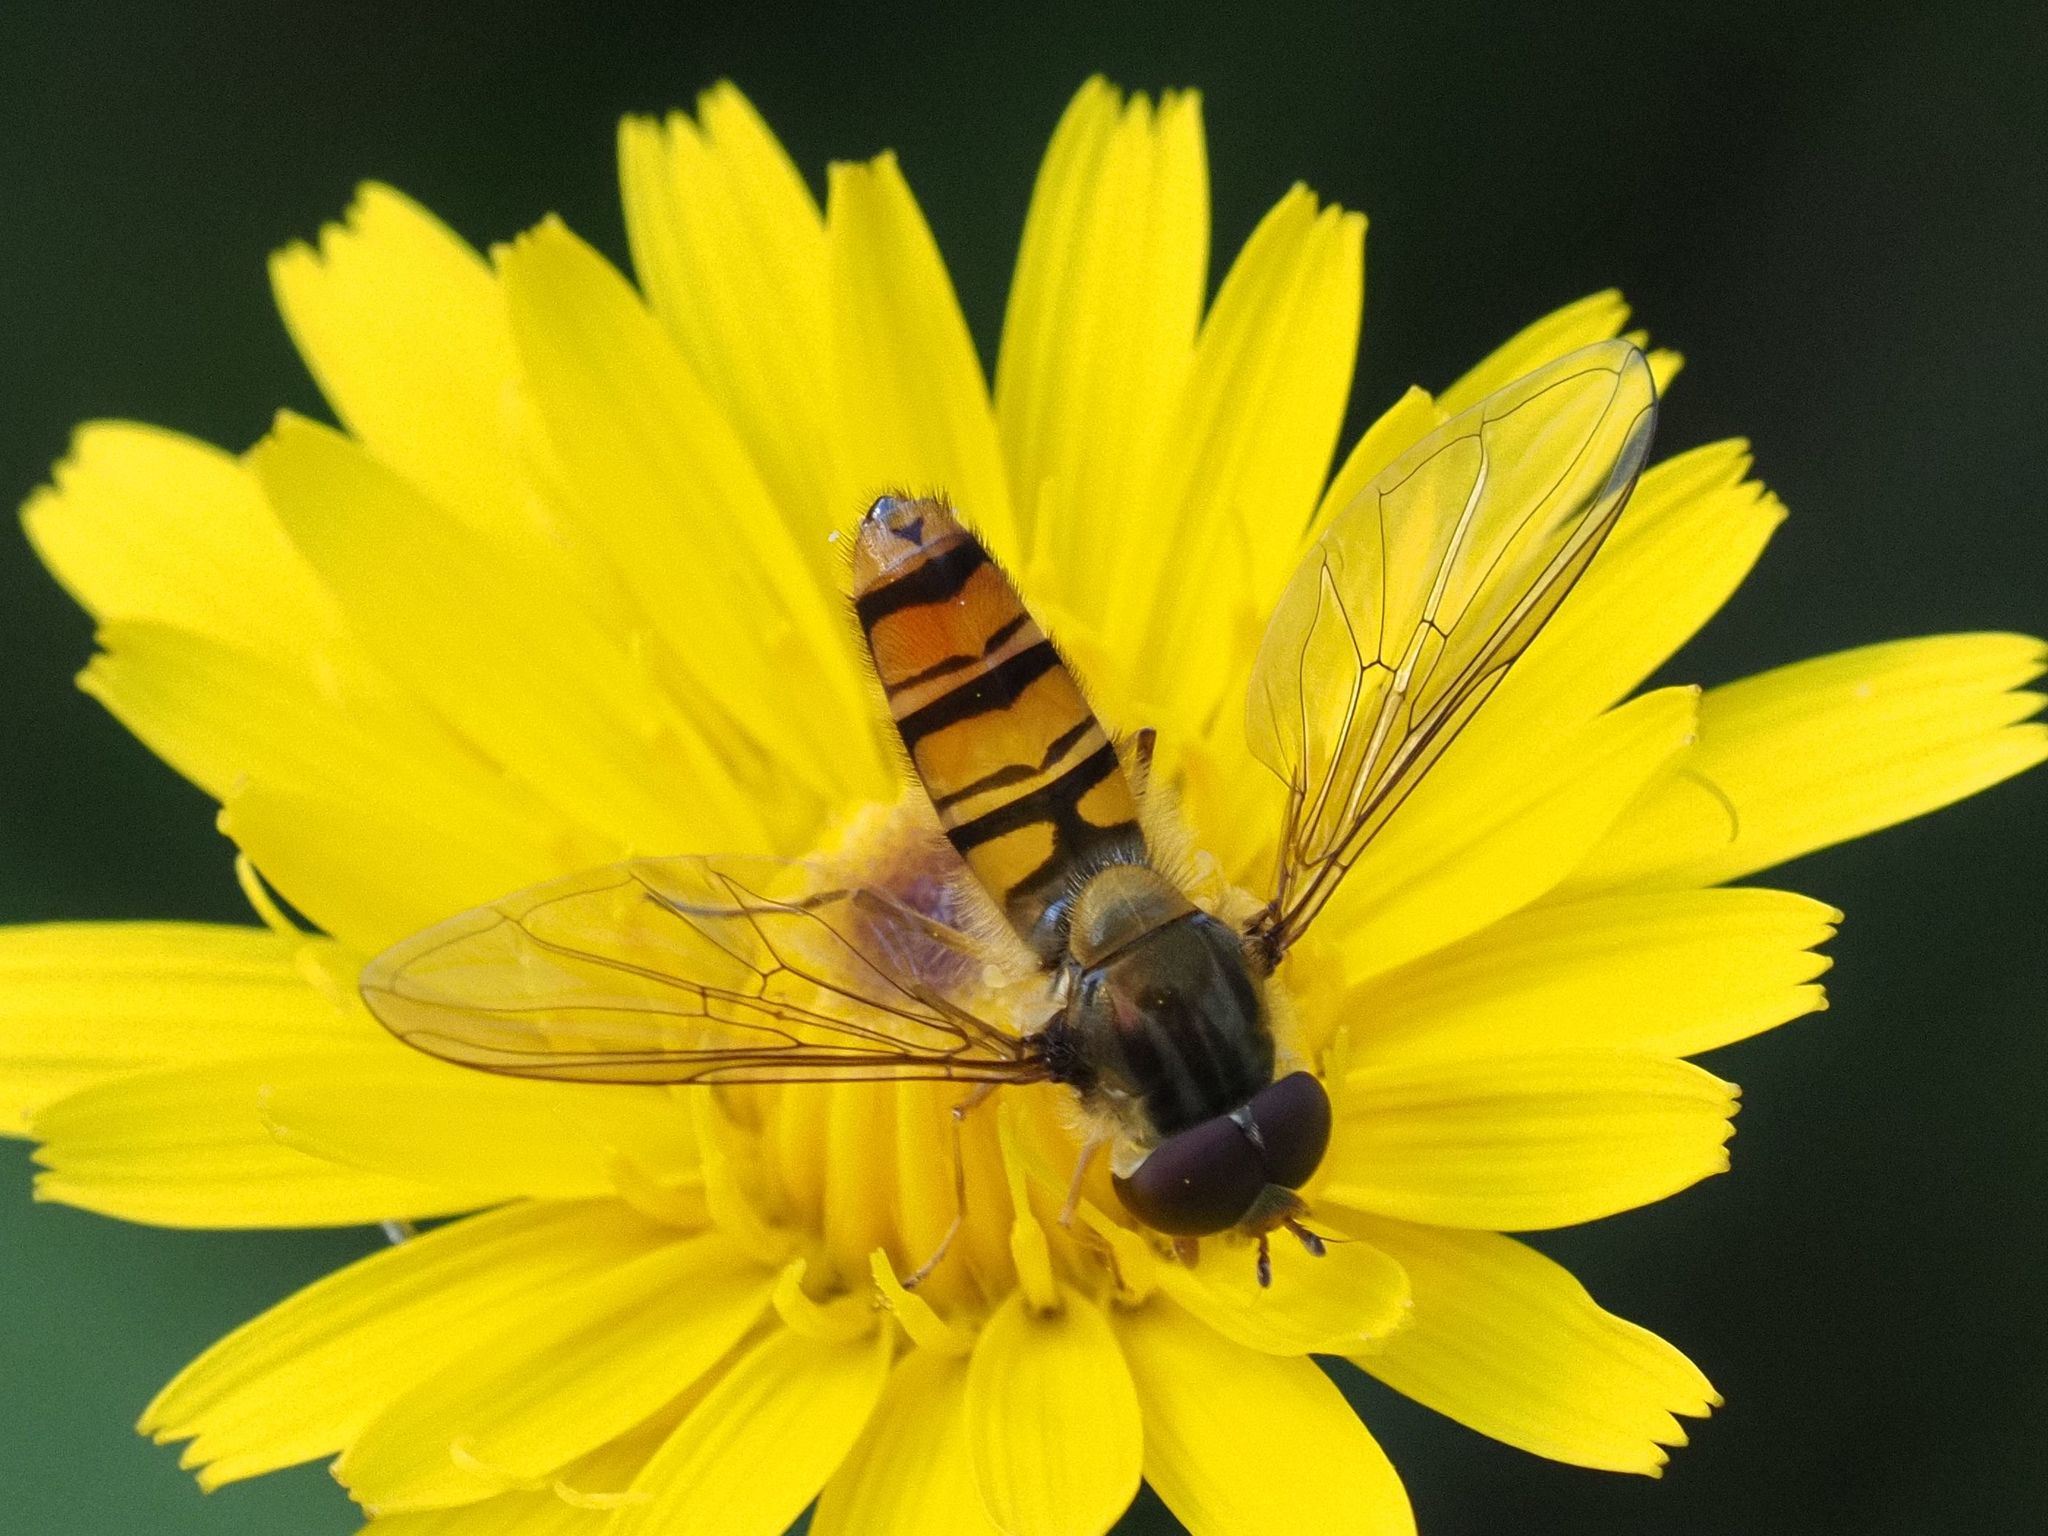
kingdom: Animalia
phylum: Arthropoda
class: Insecta
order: Diptera
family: Syrphidae
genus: Episyrphus
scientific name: Episyrphus balteatus
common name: Marmalade hoverfly
